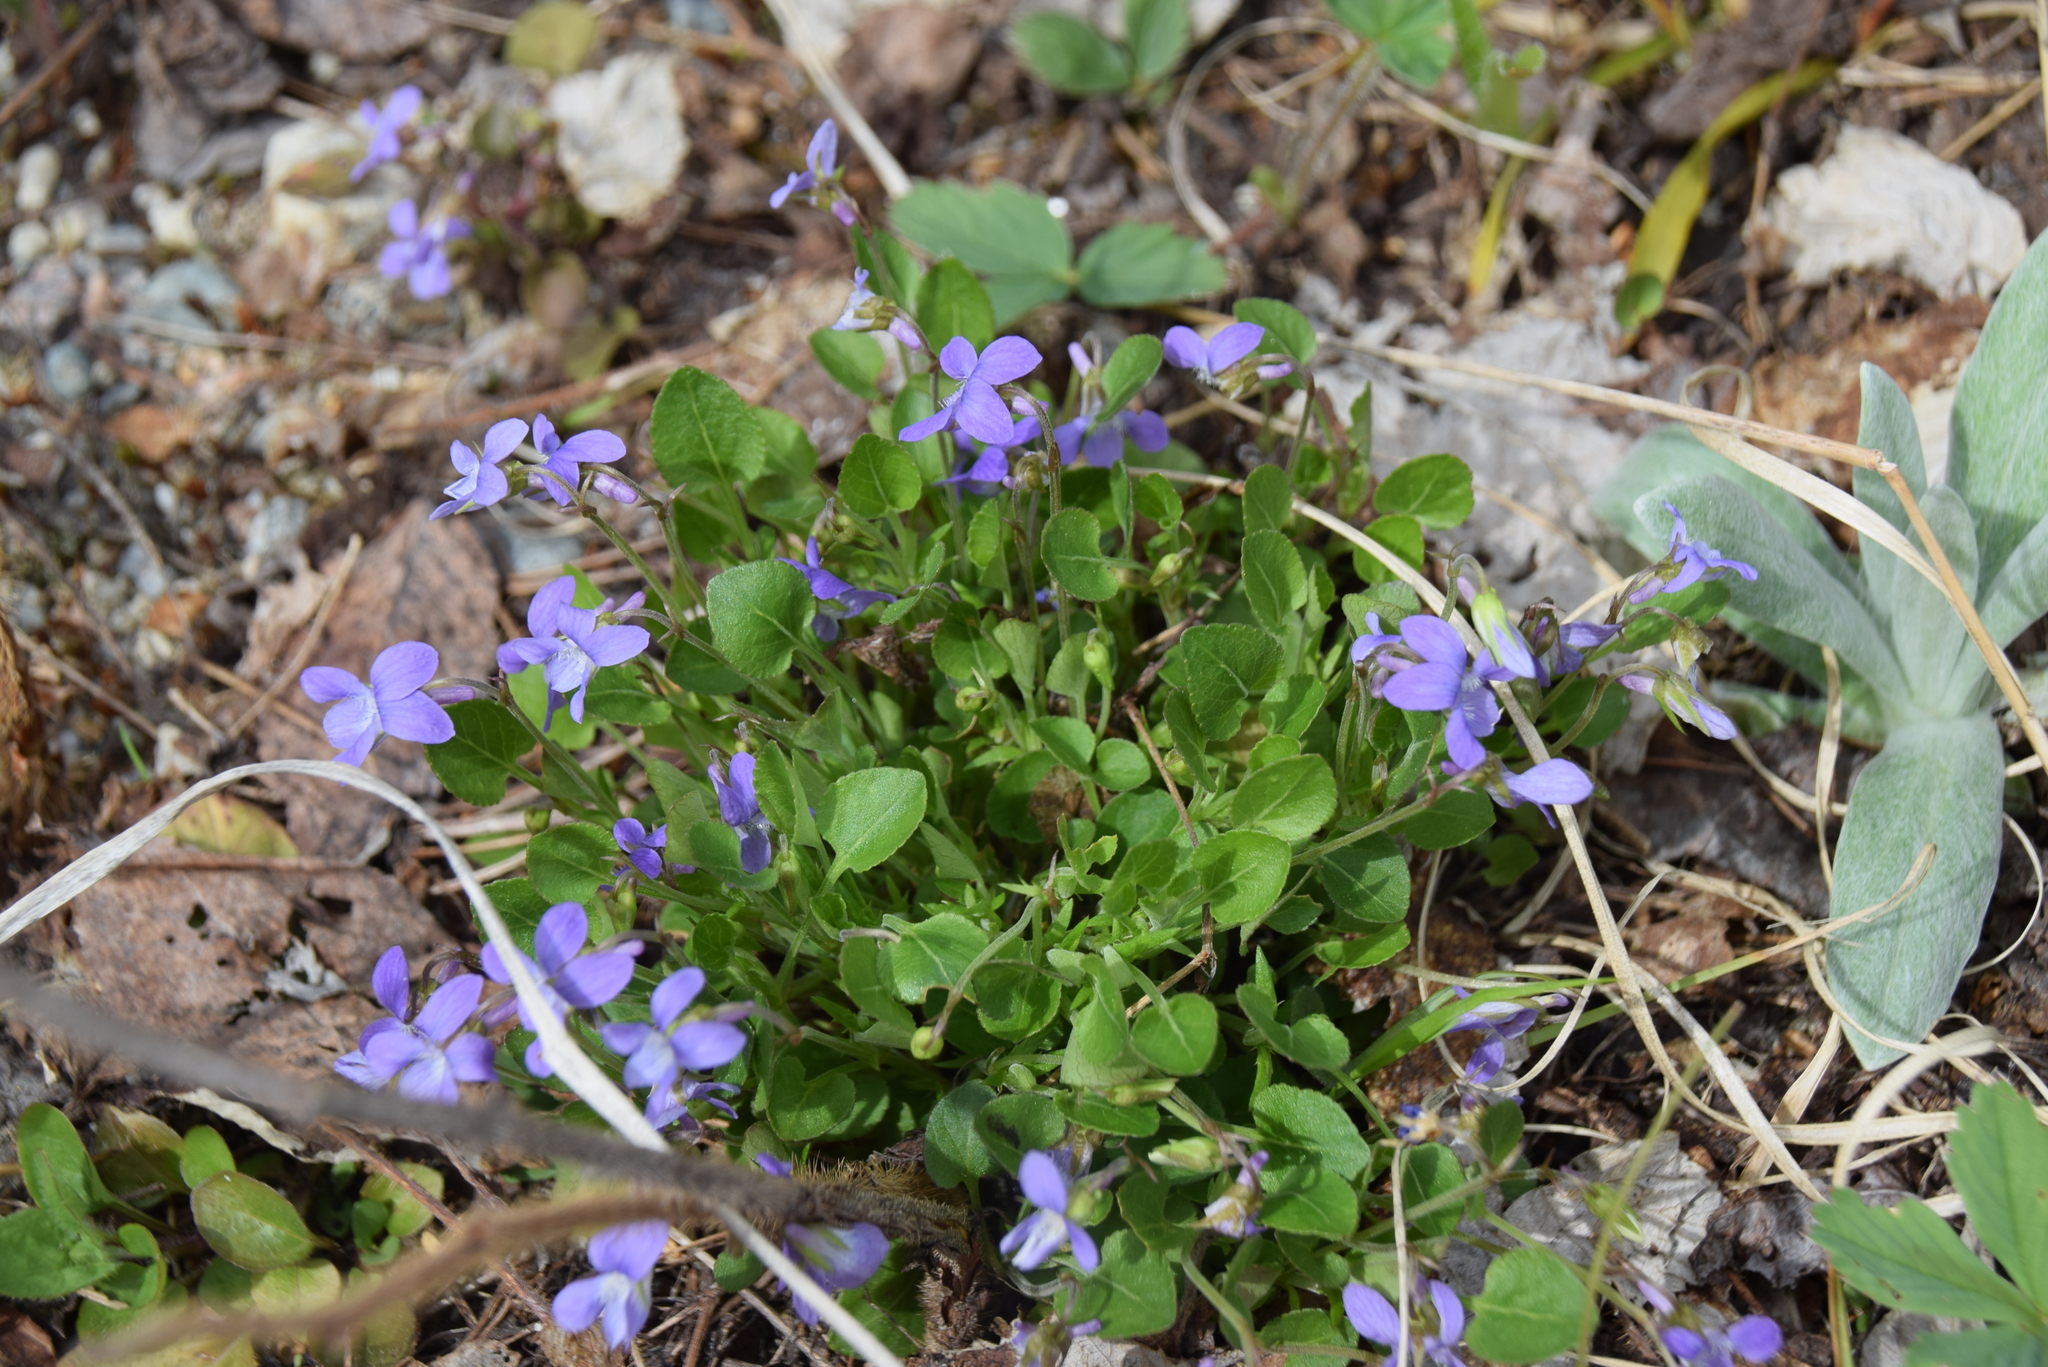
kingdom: Plantae
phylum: Tracheophyta
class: Magnoliopsida
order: Malpighiales
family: Violaceae
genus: Viola
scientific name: Viola adunca
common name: Sand violet
